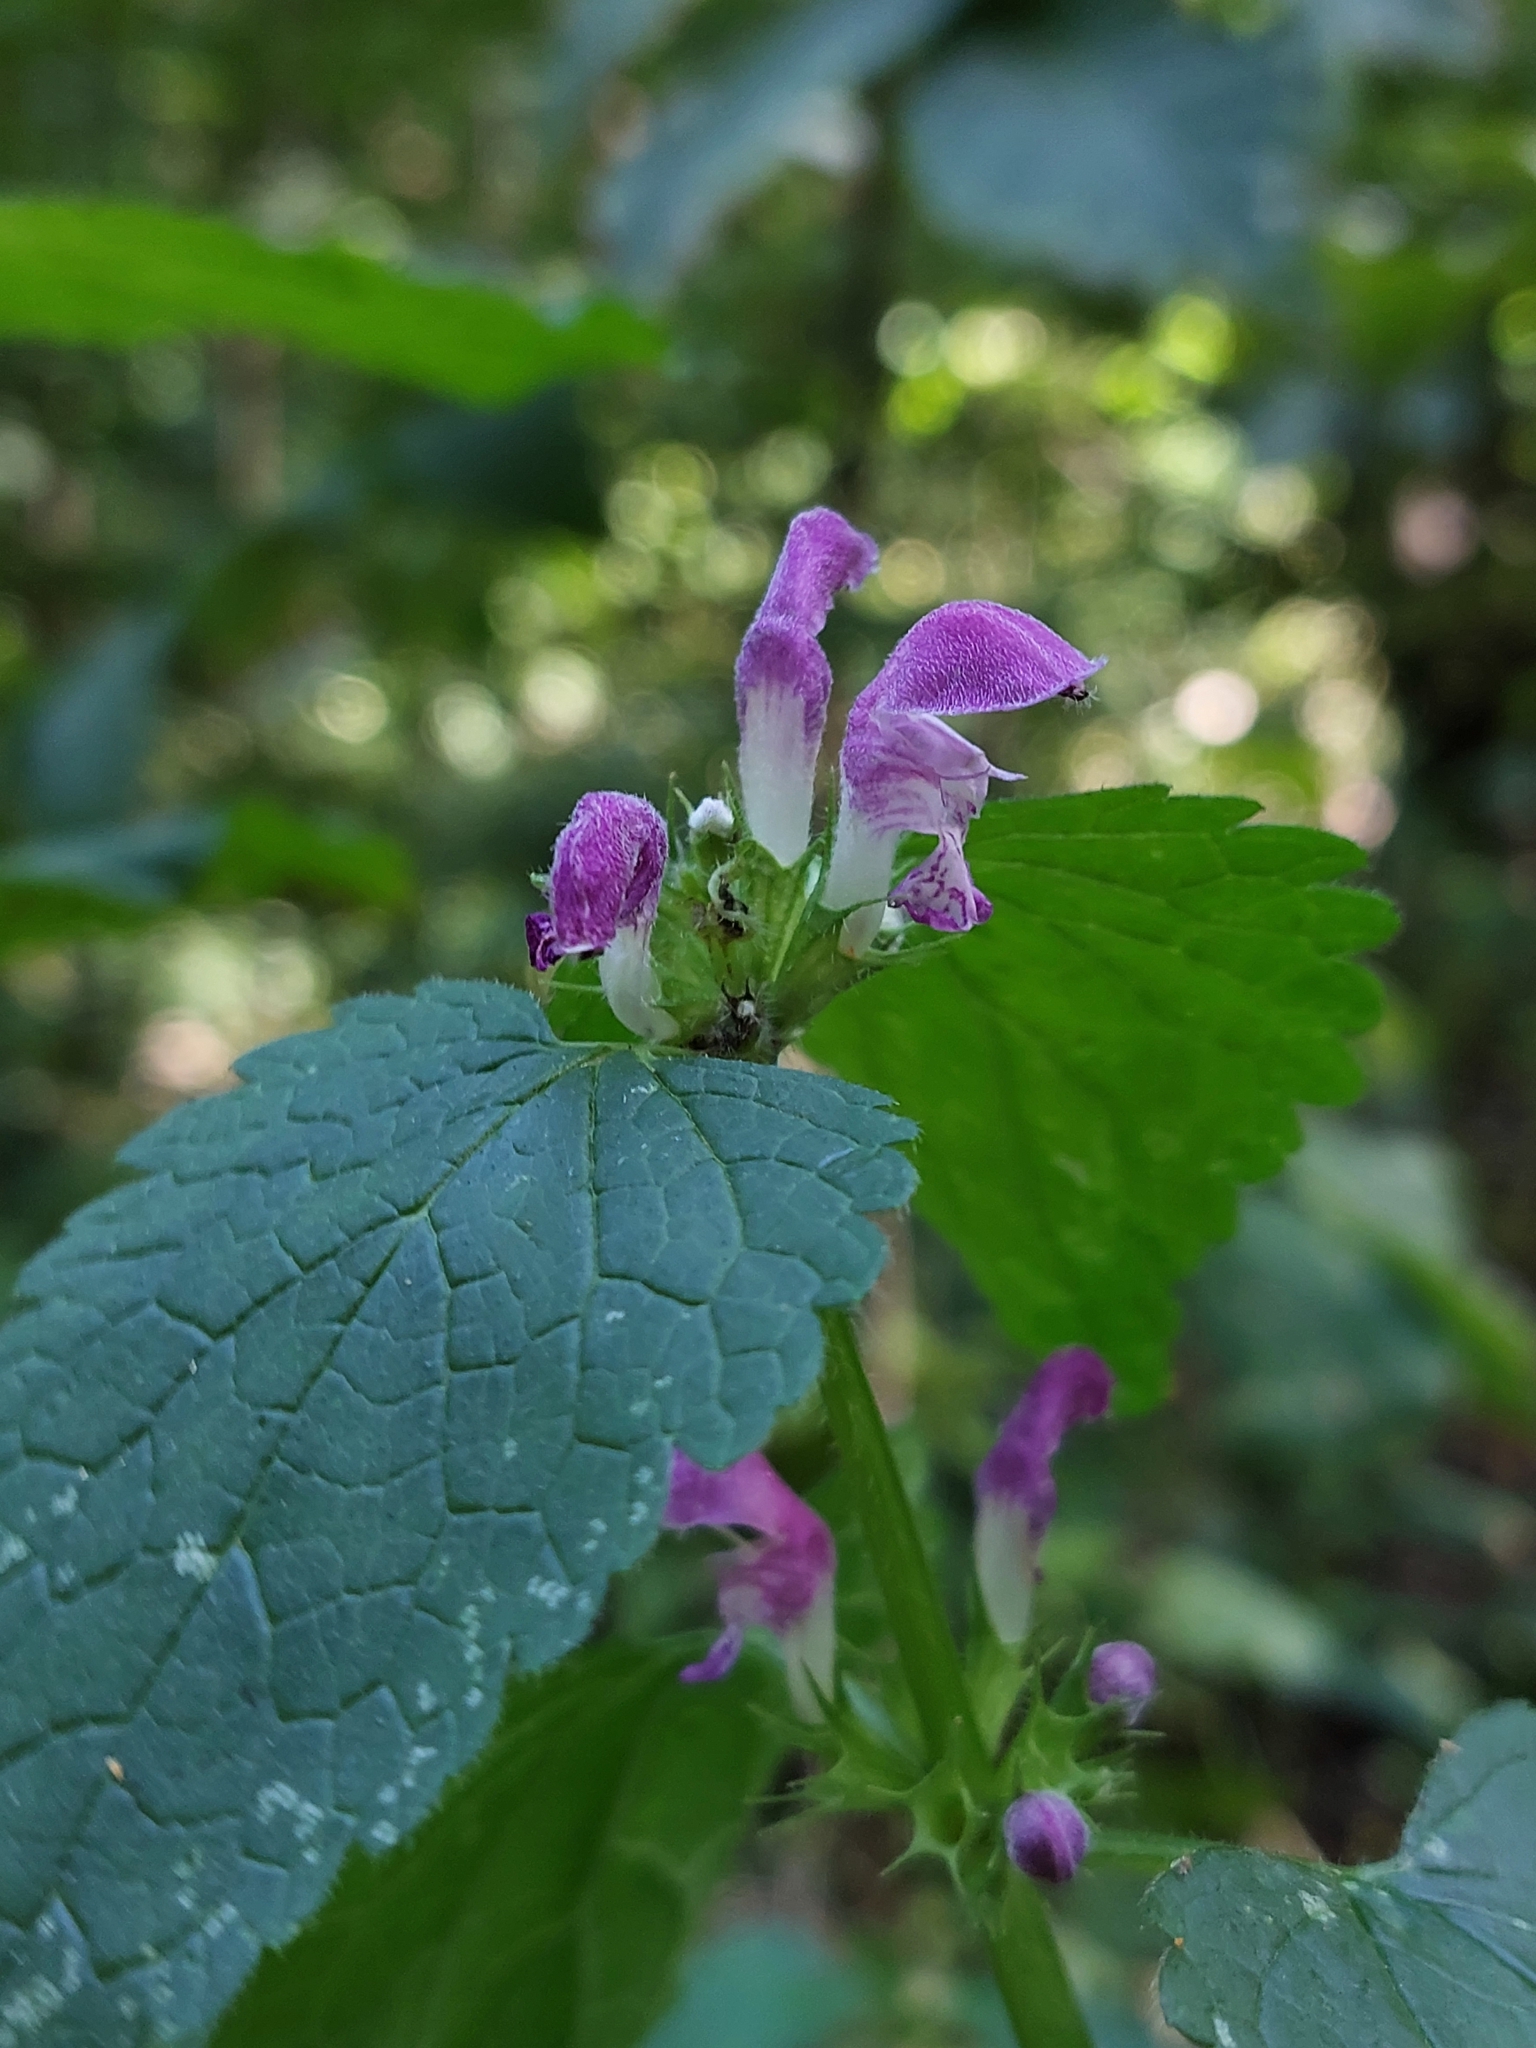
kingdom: Plantae
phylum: Tracheophyta
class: Magnoliopsida
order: Lamiales
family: Lamiaceae
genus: Lamium
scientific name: Lamium maculatum
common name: Spotted dead-nettle
